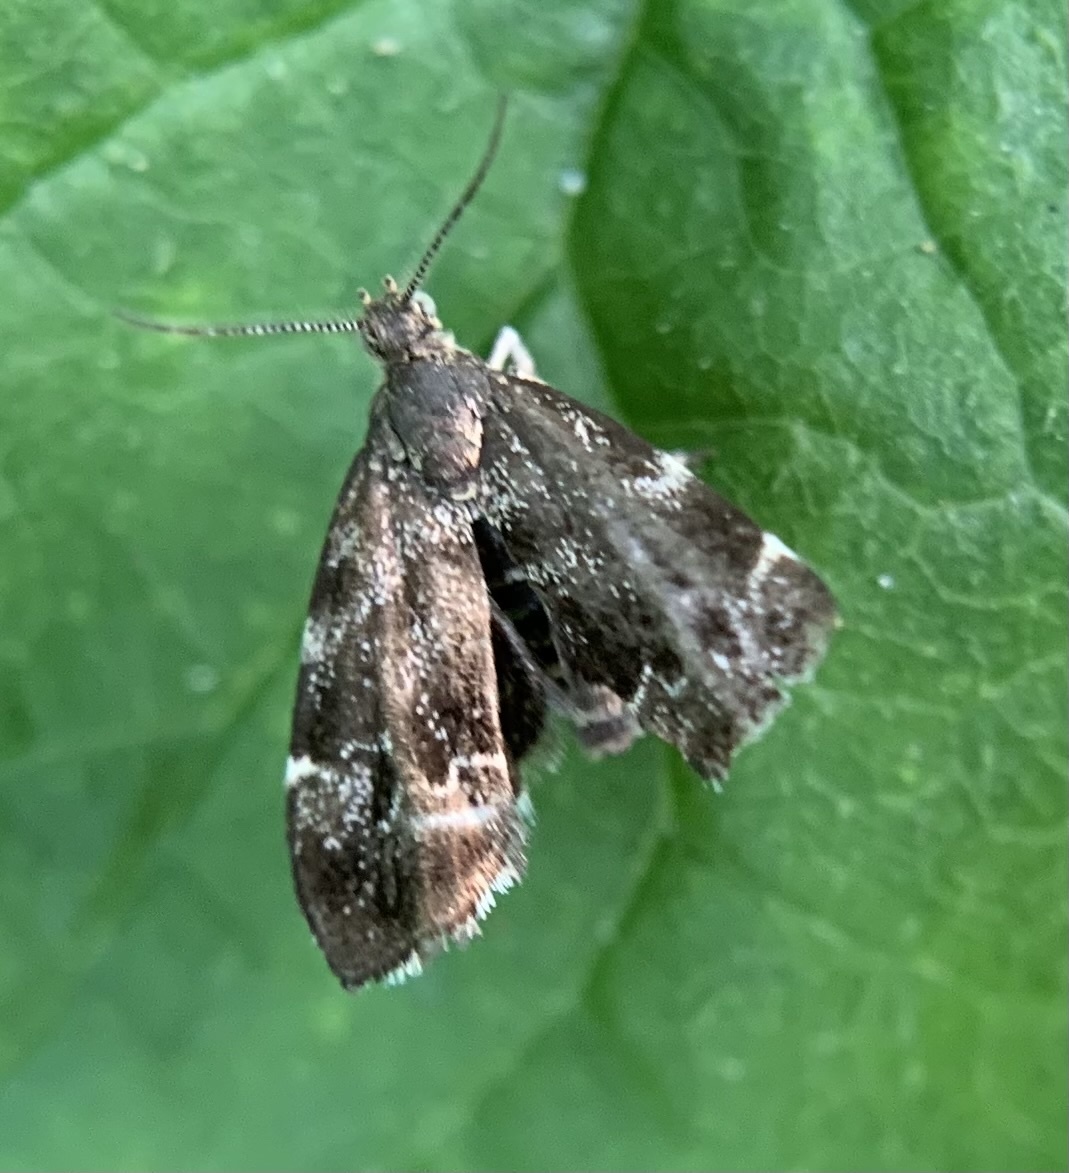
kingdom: Animalia
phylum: Arthropoda
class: Insecta
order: Lepidoptera
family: Choreutidae
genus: Anthophila
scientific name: Anthophila fabriciana
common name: Nettle-tap
